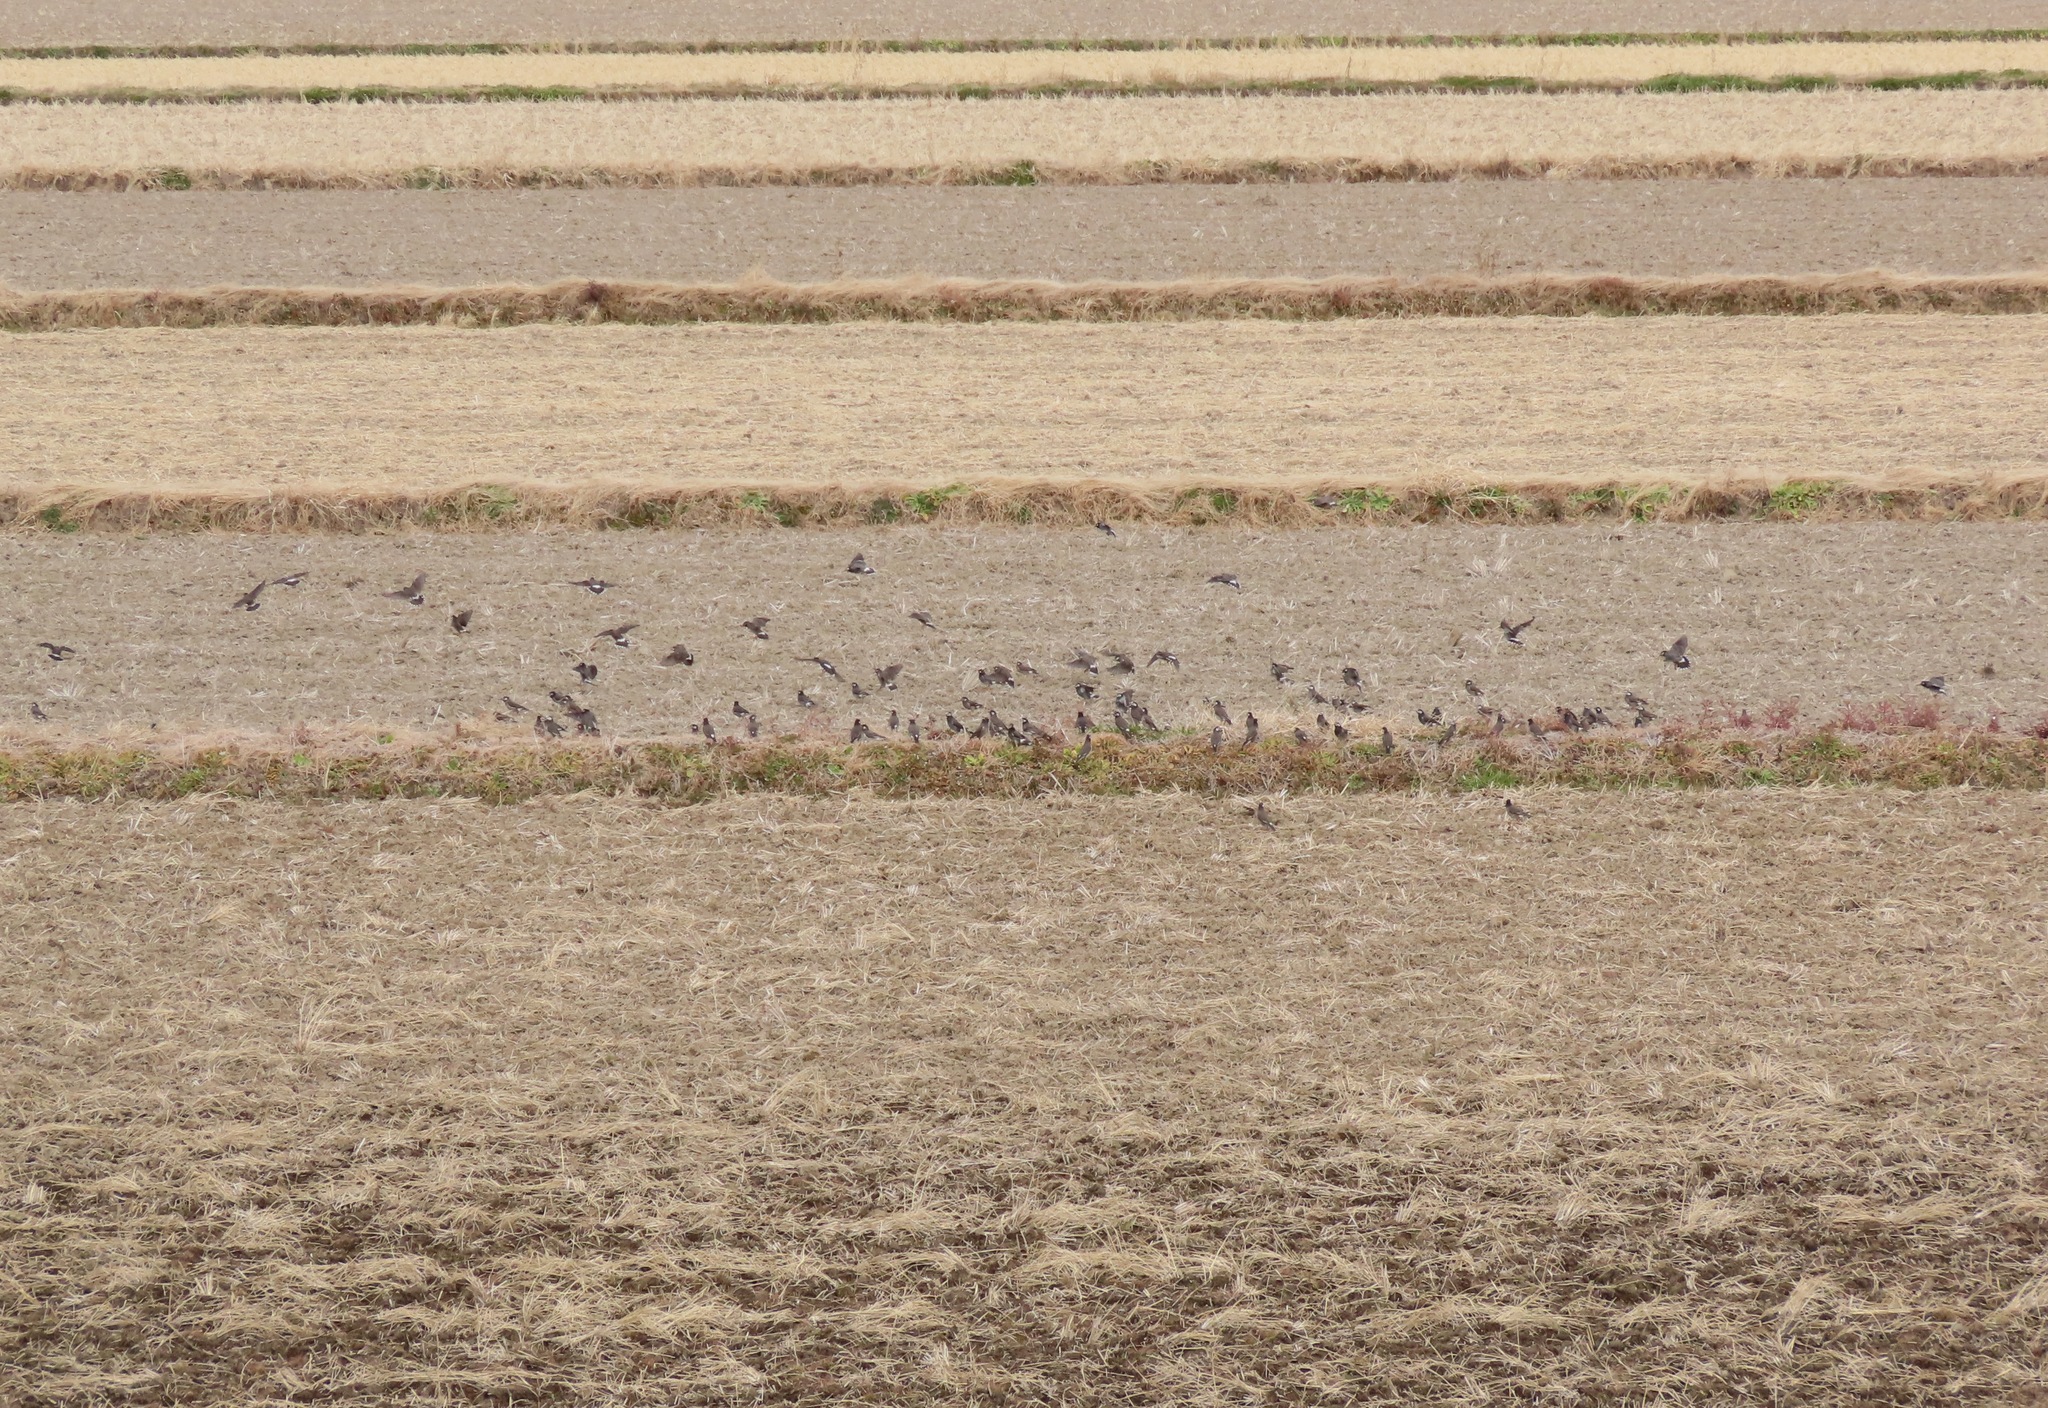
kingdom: Animalia
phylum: Chordata
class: Aves
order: Passeriformes
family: Sturnidae
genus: Spodiopsar
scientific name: Spodiopsar cineraceus
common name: White-cheeked starling
